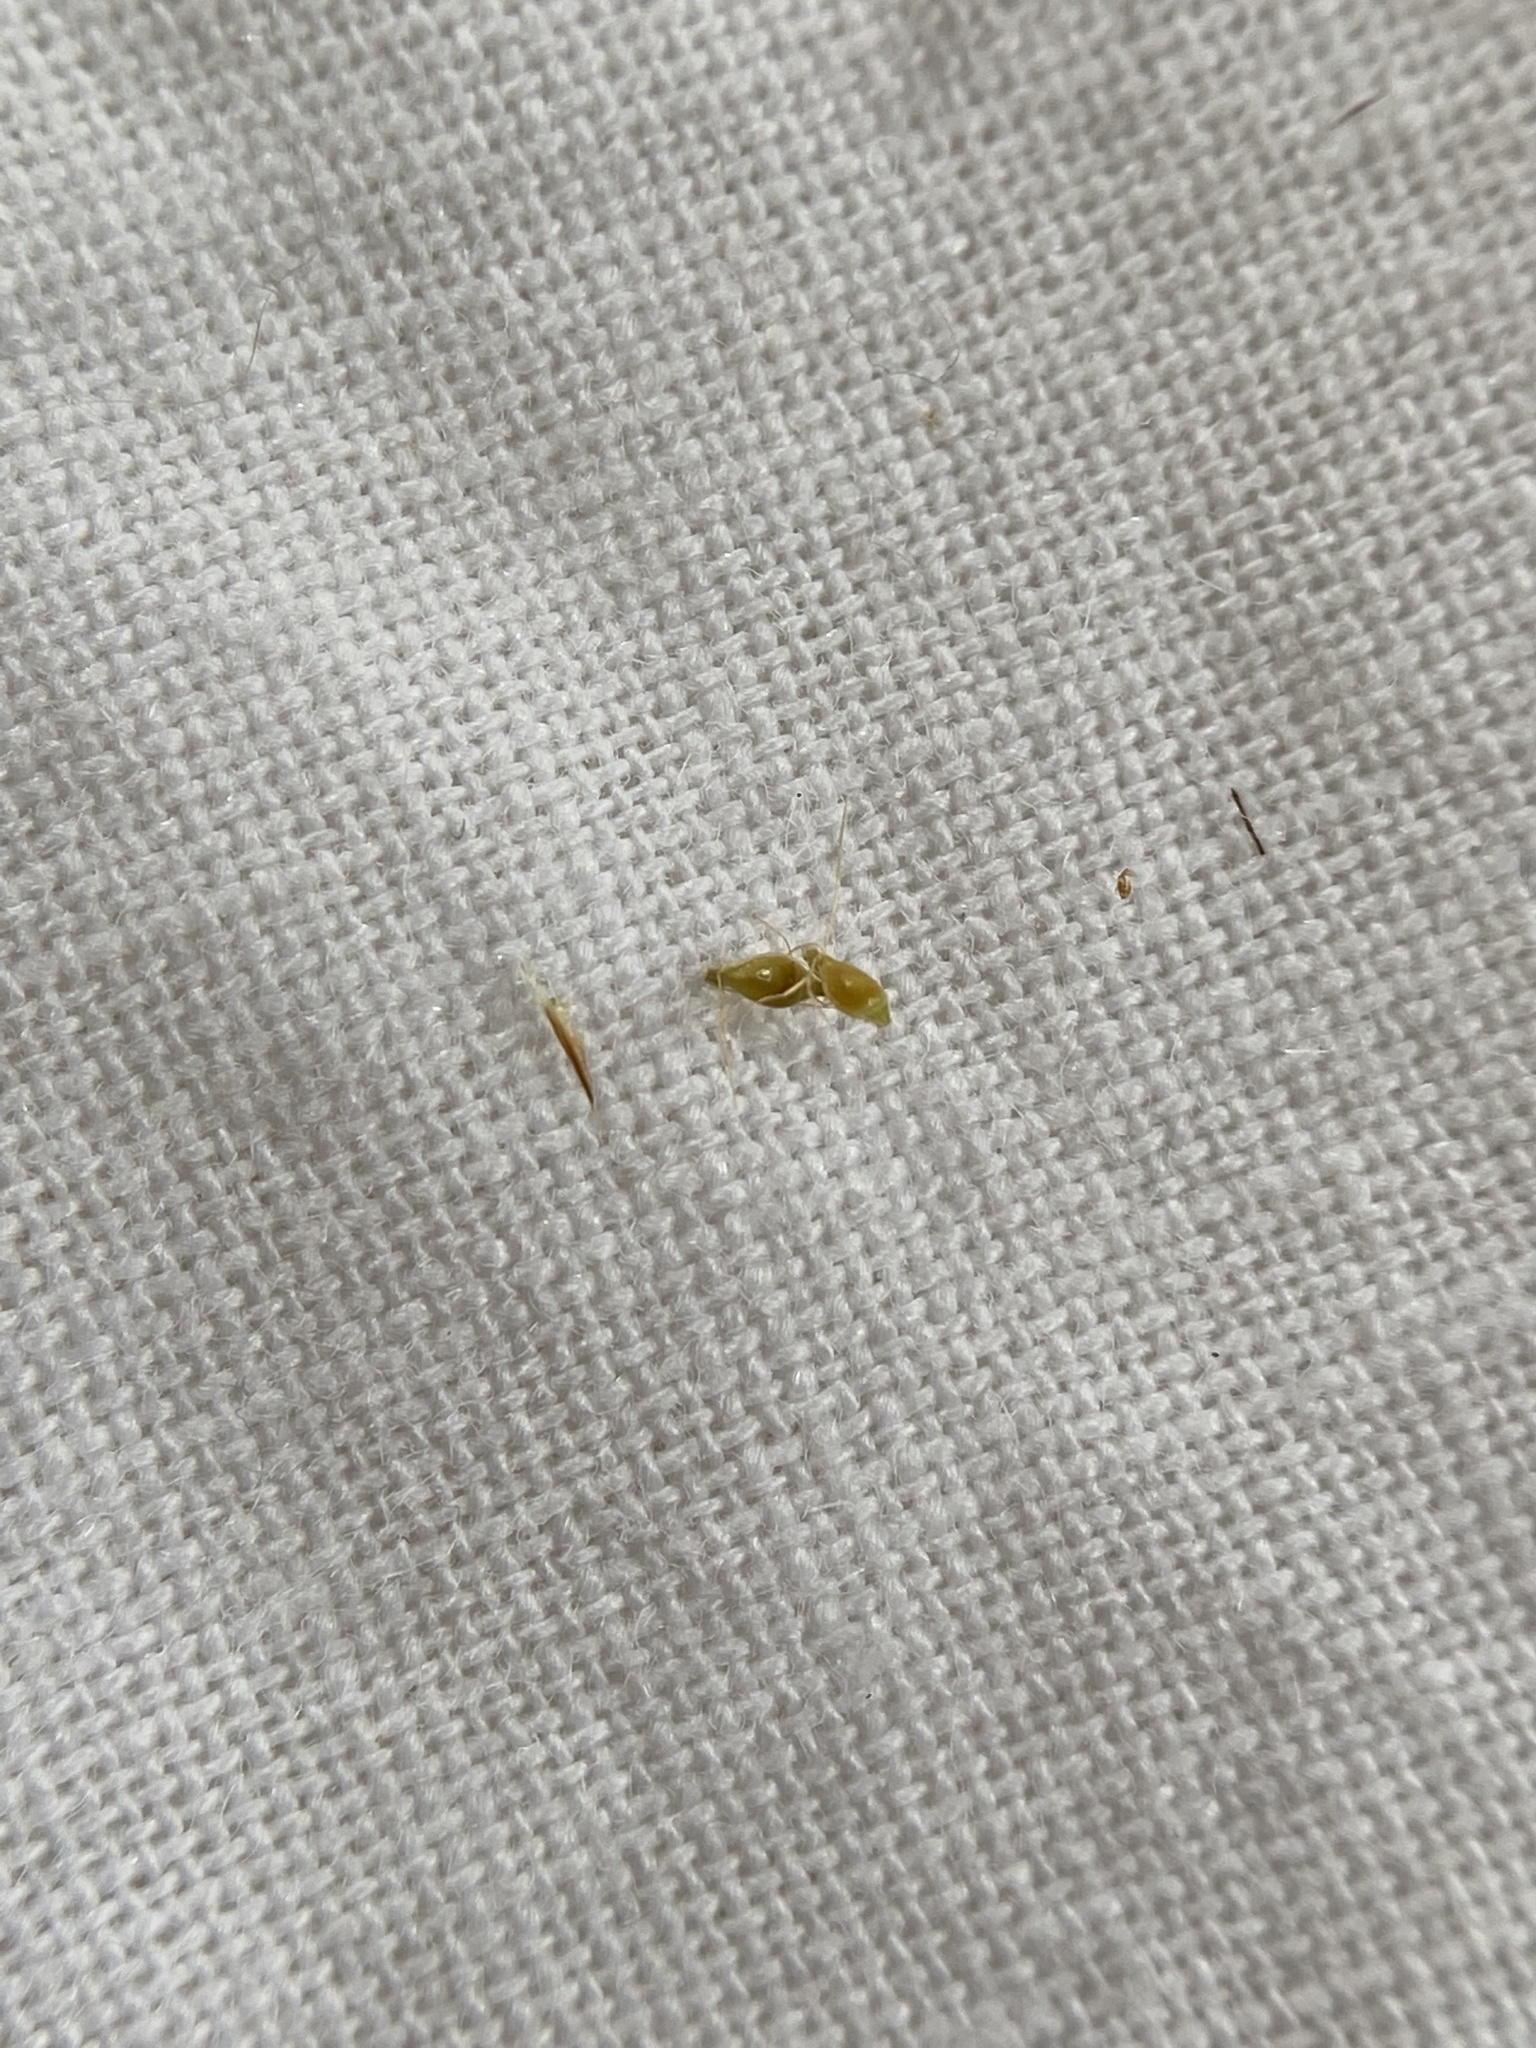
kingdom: Plantae
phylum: Tracheophyta
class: Liliopsida
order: Poales
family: Cyperaceae
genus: Rhynchospora
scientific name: Rhynchospora capitellata
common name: Brownish beaksedge
